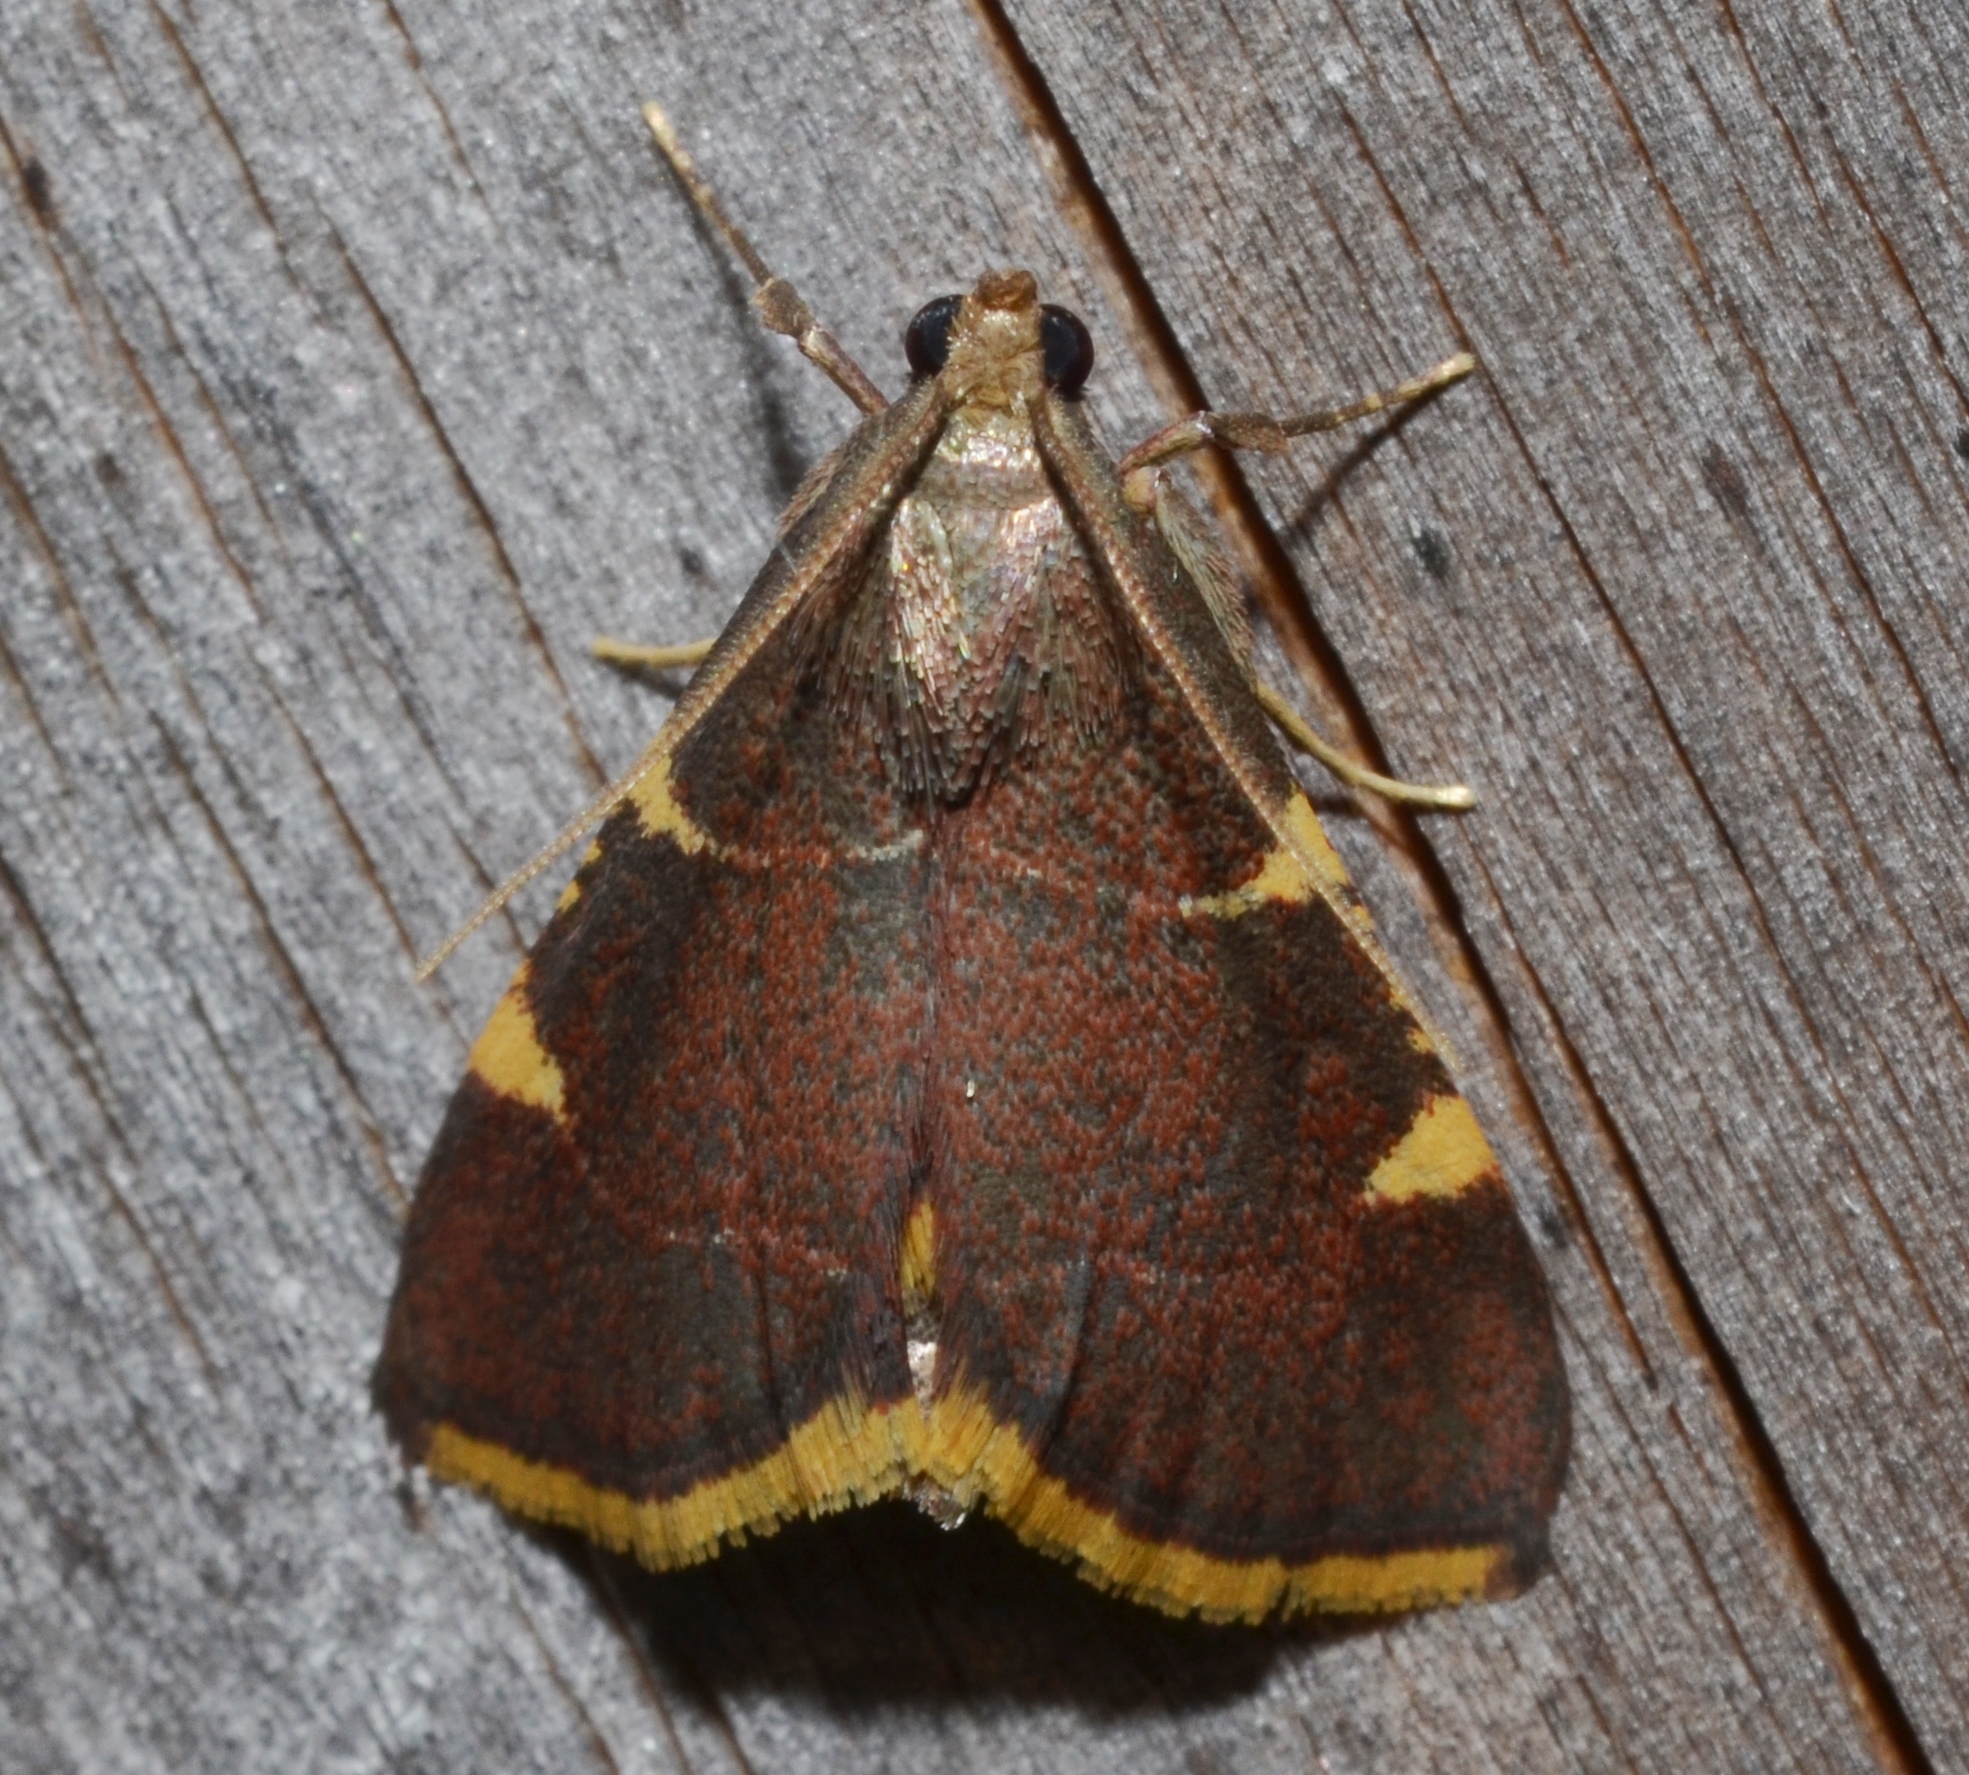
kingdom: Animalia
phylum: Arthropoda
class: Insecta
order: Lepidoptera
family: Pyralidae
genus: Hypsopygia
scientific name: Hypsopygia olinalis
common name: Yellow-fringed dolichomia moth
